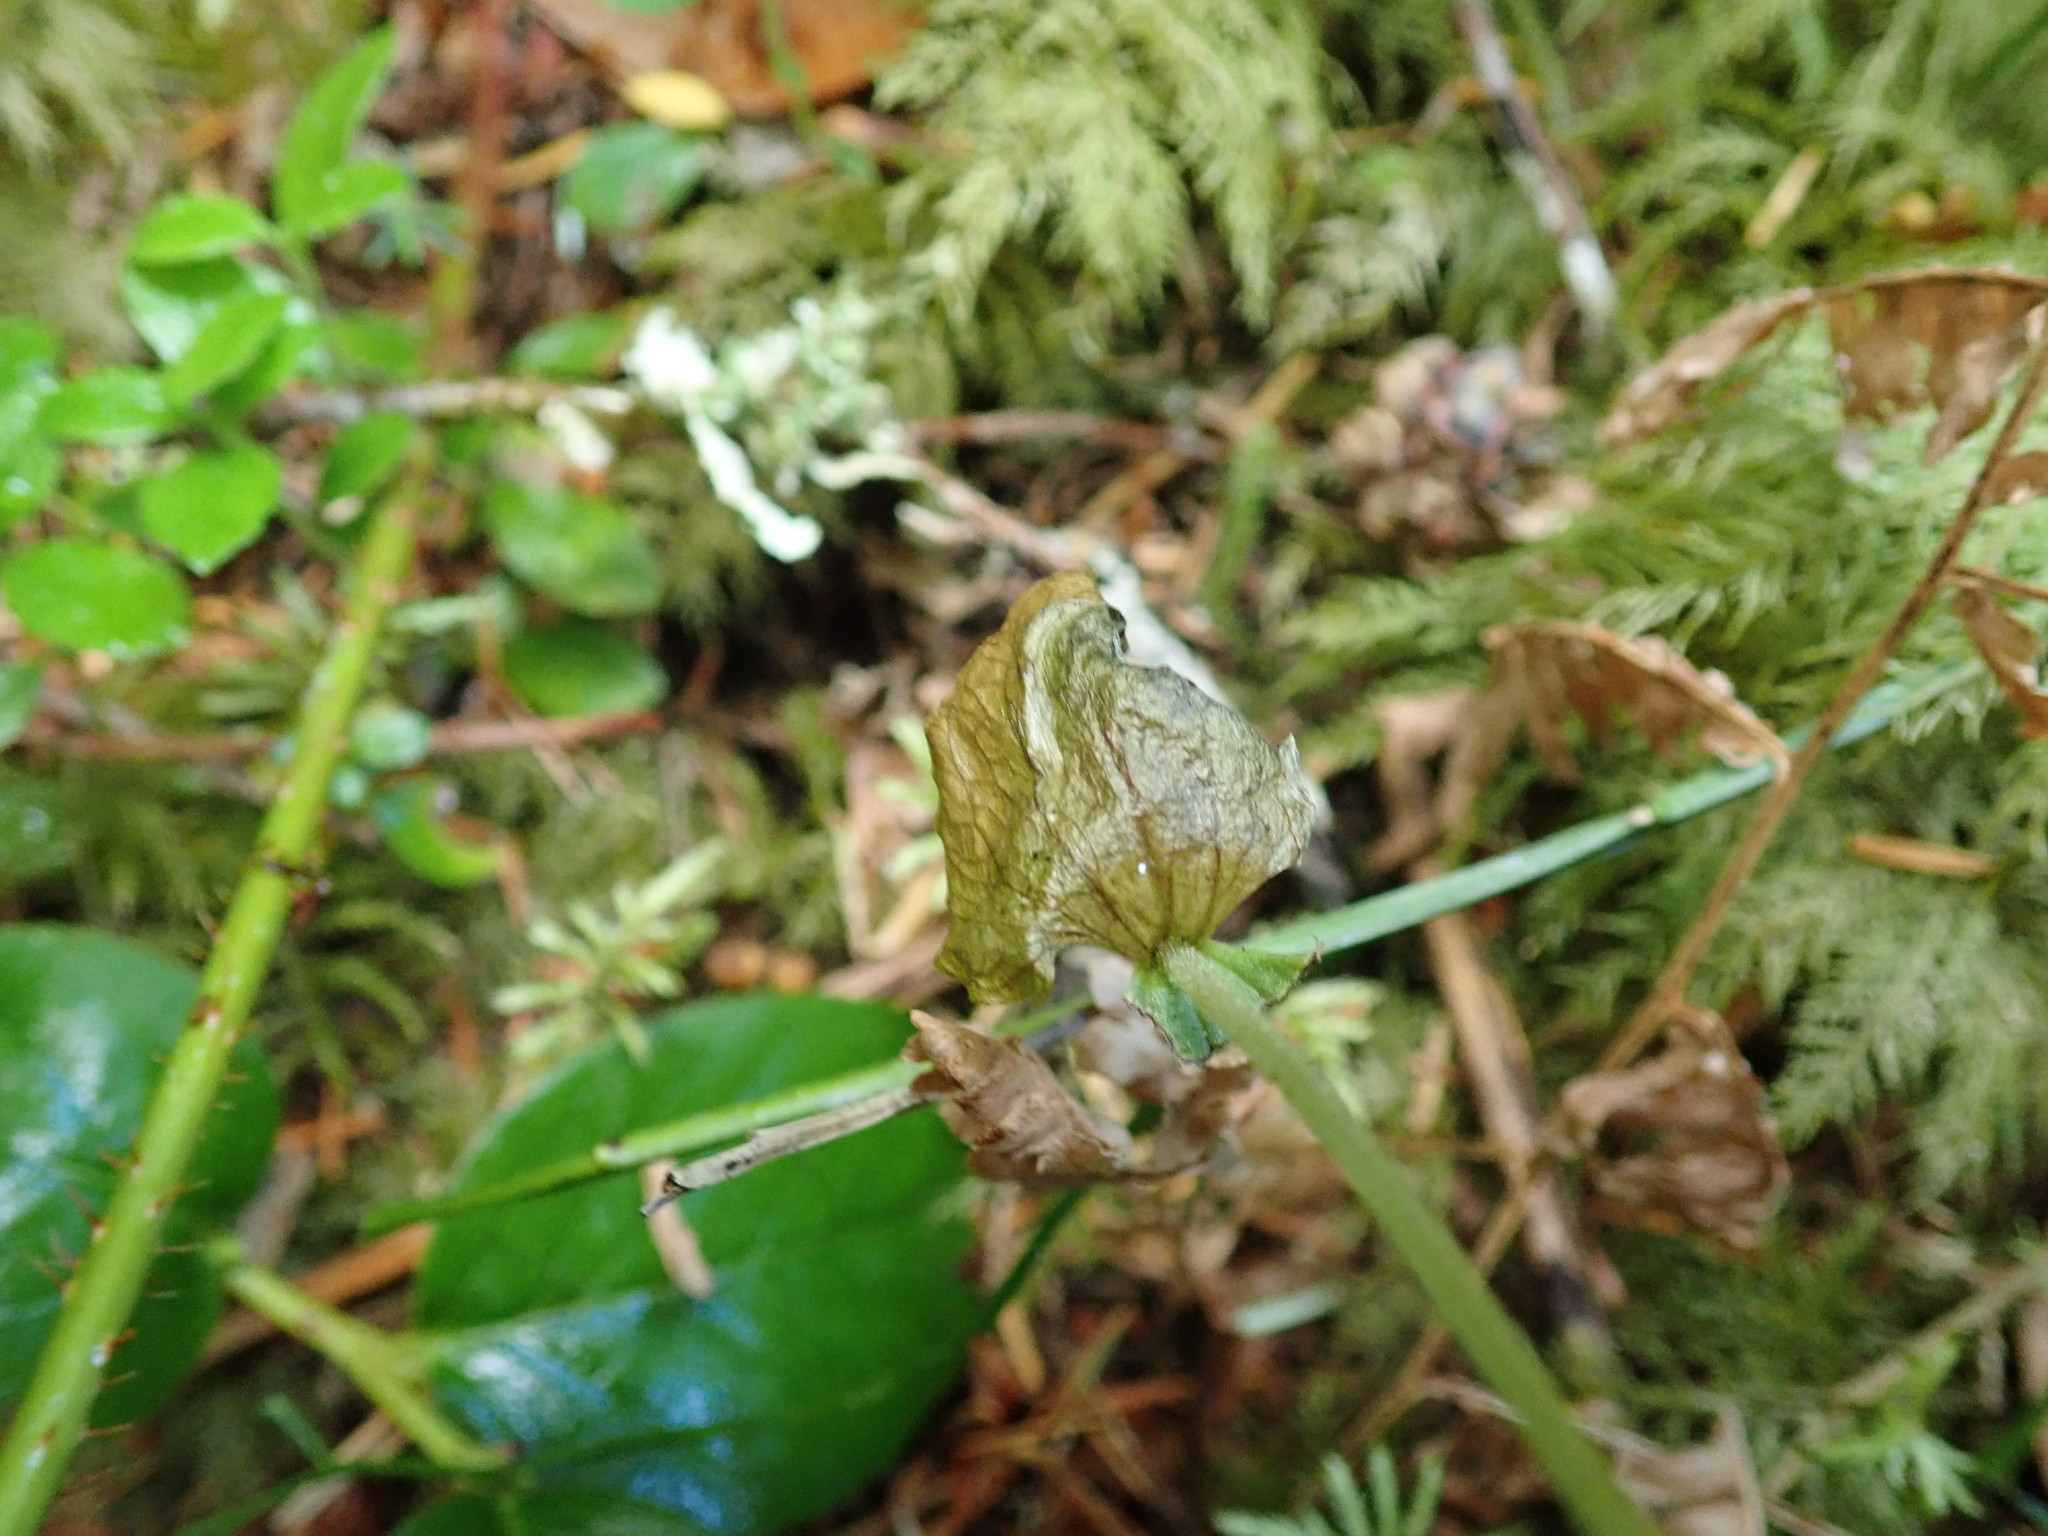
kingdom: Plantae
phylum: Tracheophyta
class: Liliopsida
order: Asparagales
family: Orchidaceae
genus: Neottia
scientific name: Neottia cordata
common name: Lesser twayblade
